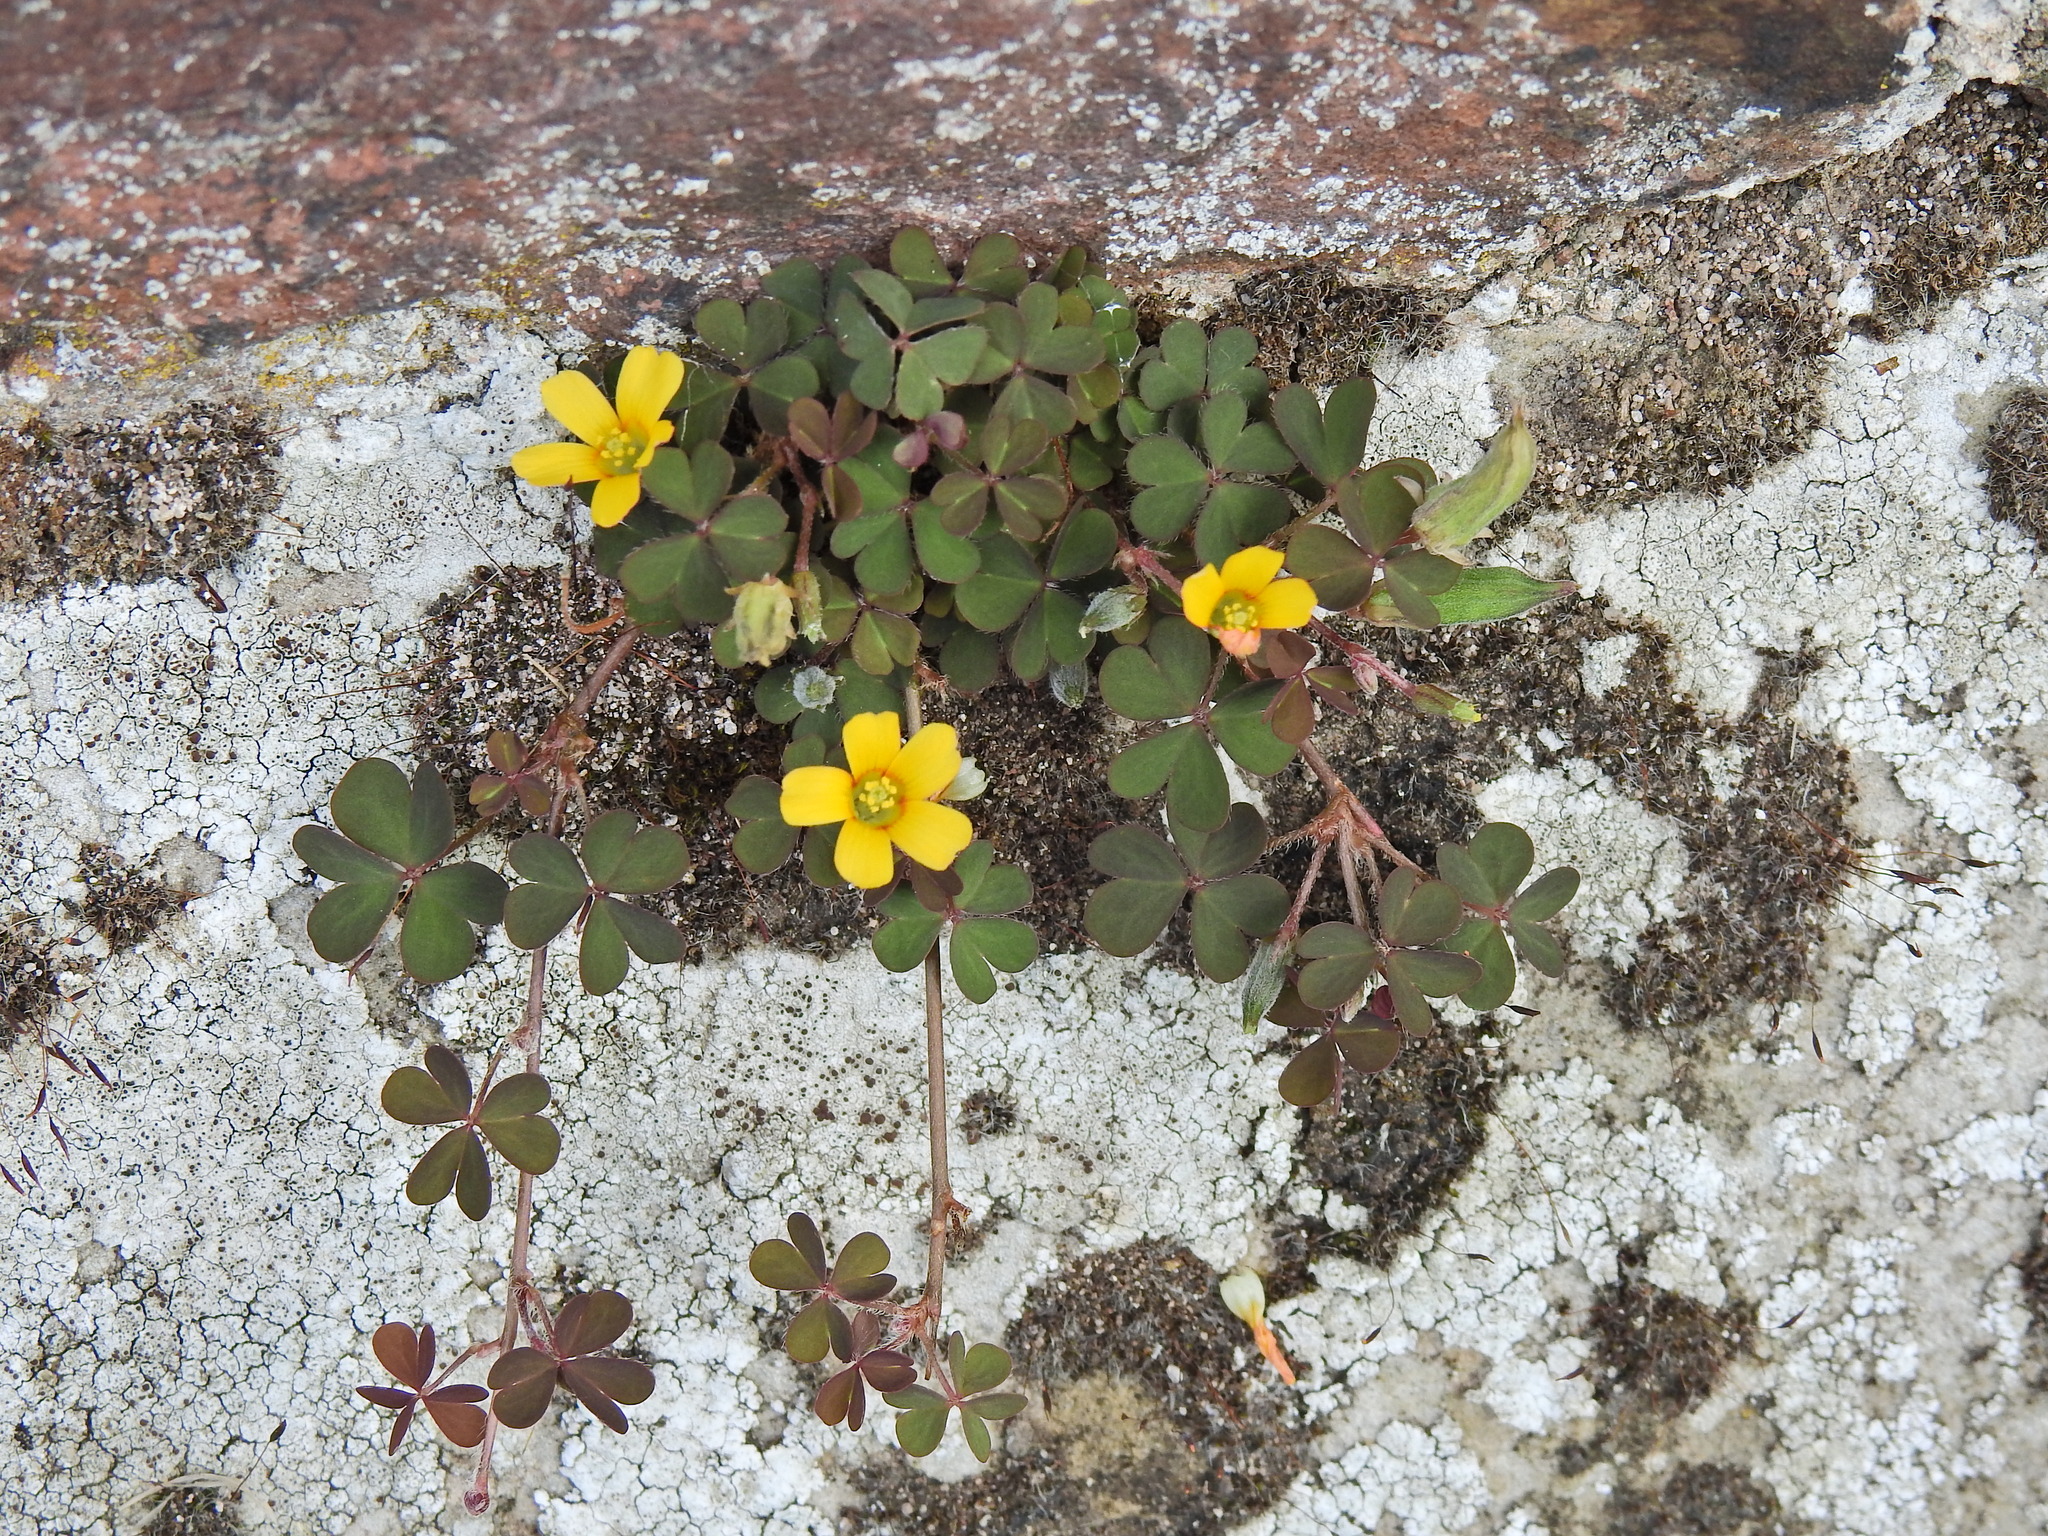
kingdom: Plantae
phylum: Tracheophyta
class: Magnoliopsida
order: Oxalidales
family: Oxalidaceae
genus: Oxalis
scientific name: Oxalis corniculata
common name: Procumbent yellow-sorrel
